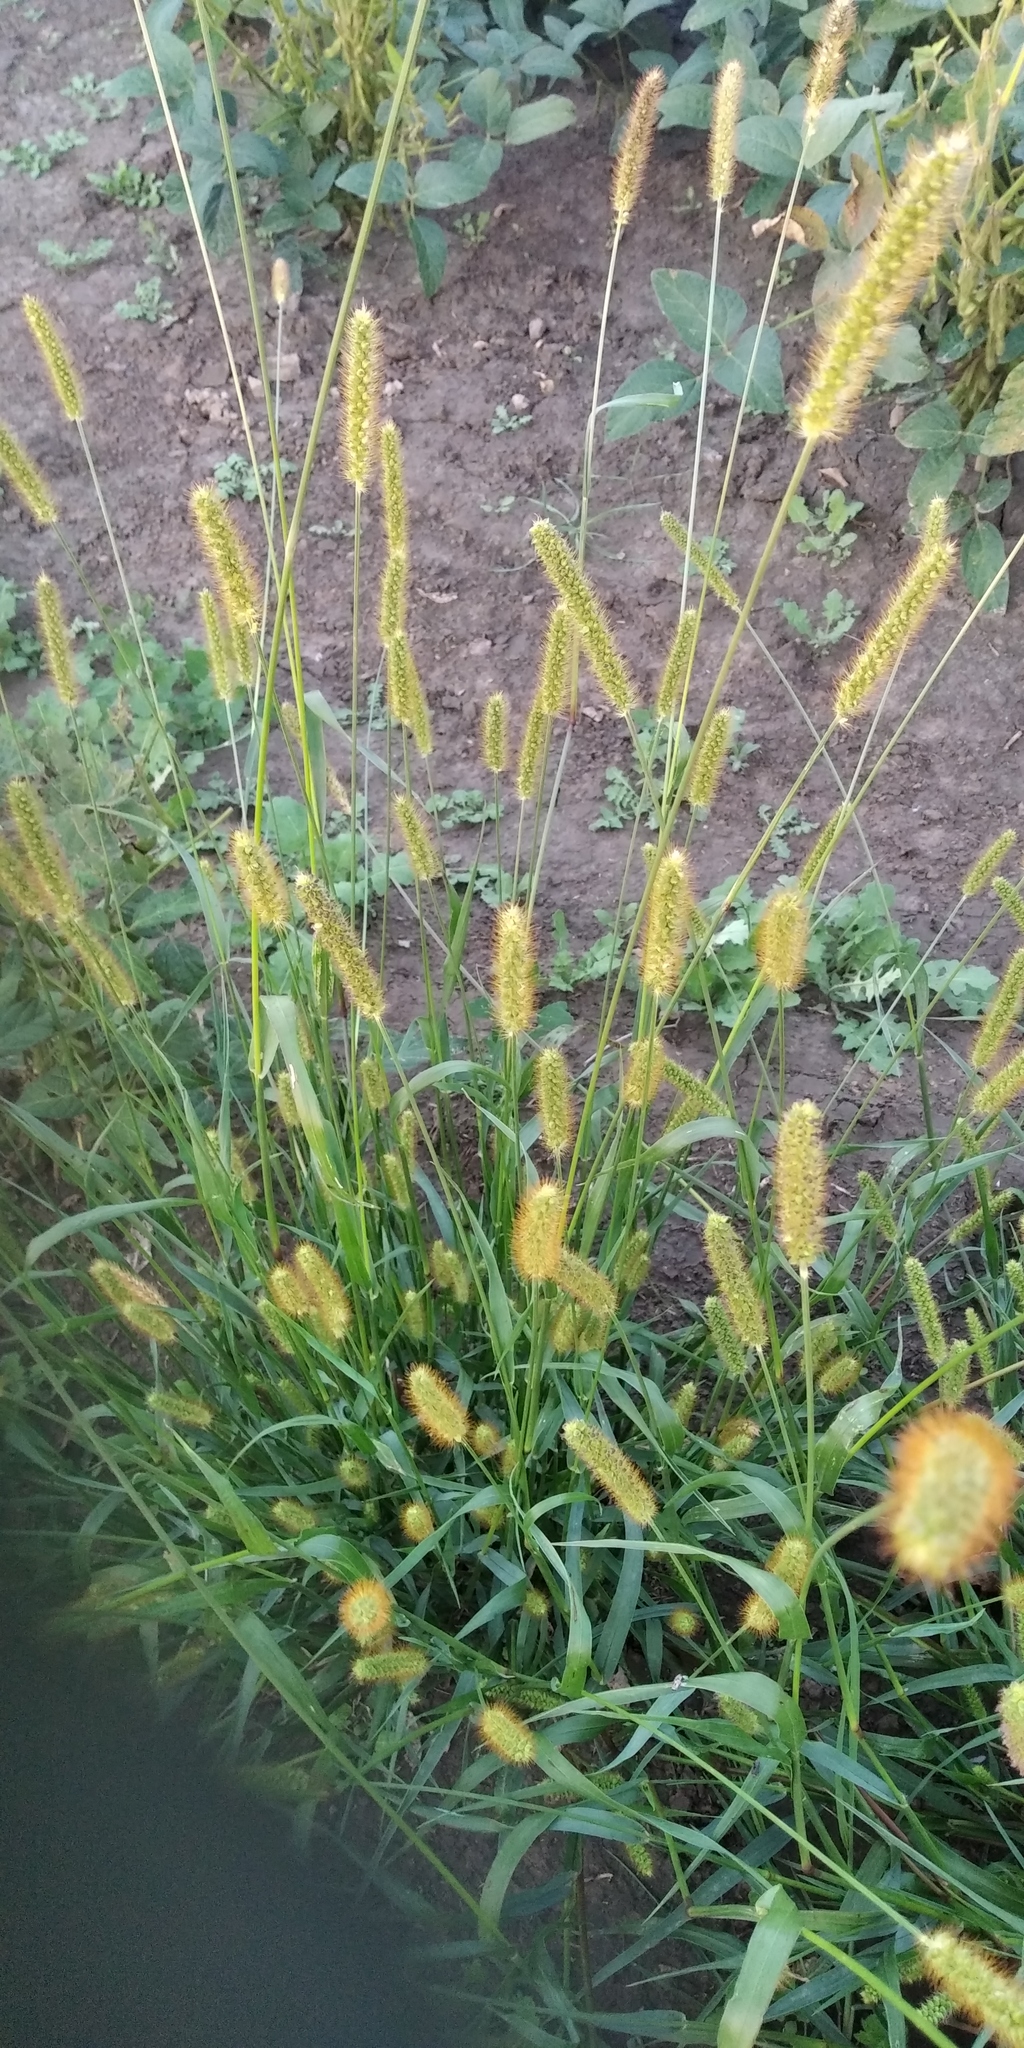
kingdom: Plantae
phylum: Tracheophyta
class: Liliopsida
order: Poales
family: Poaceae
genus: Setaria
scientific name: Setaria pumila
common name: Yellow bristle-grass
